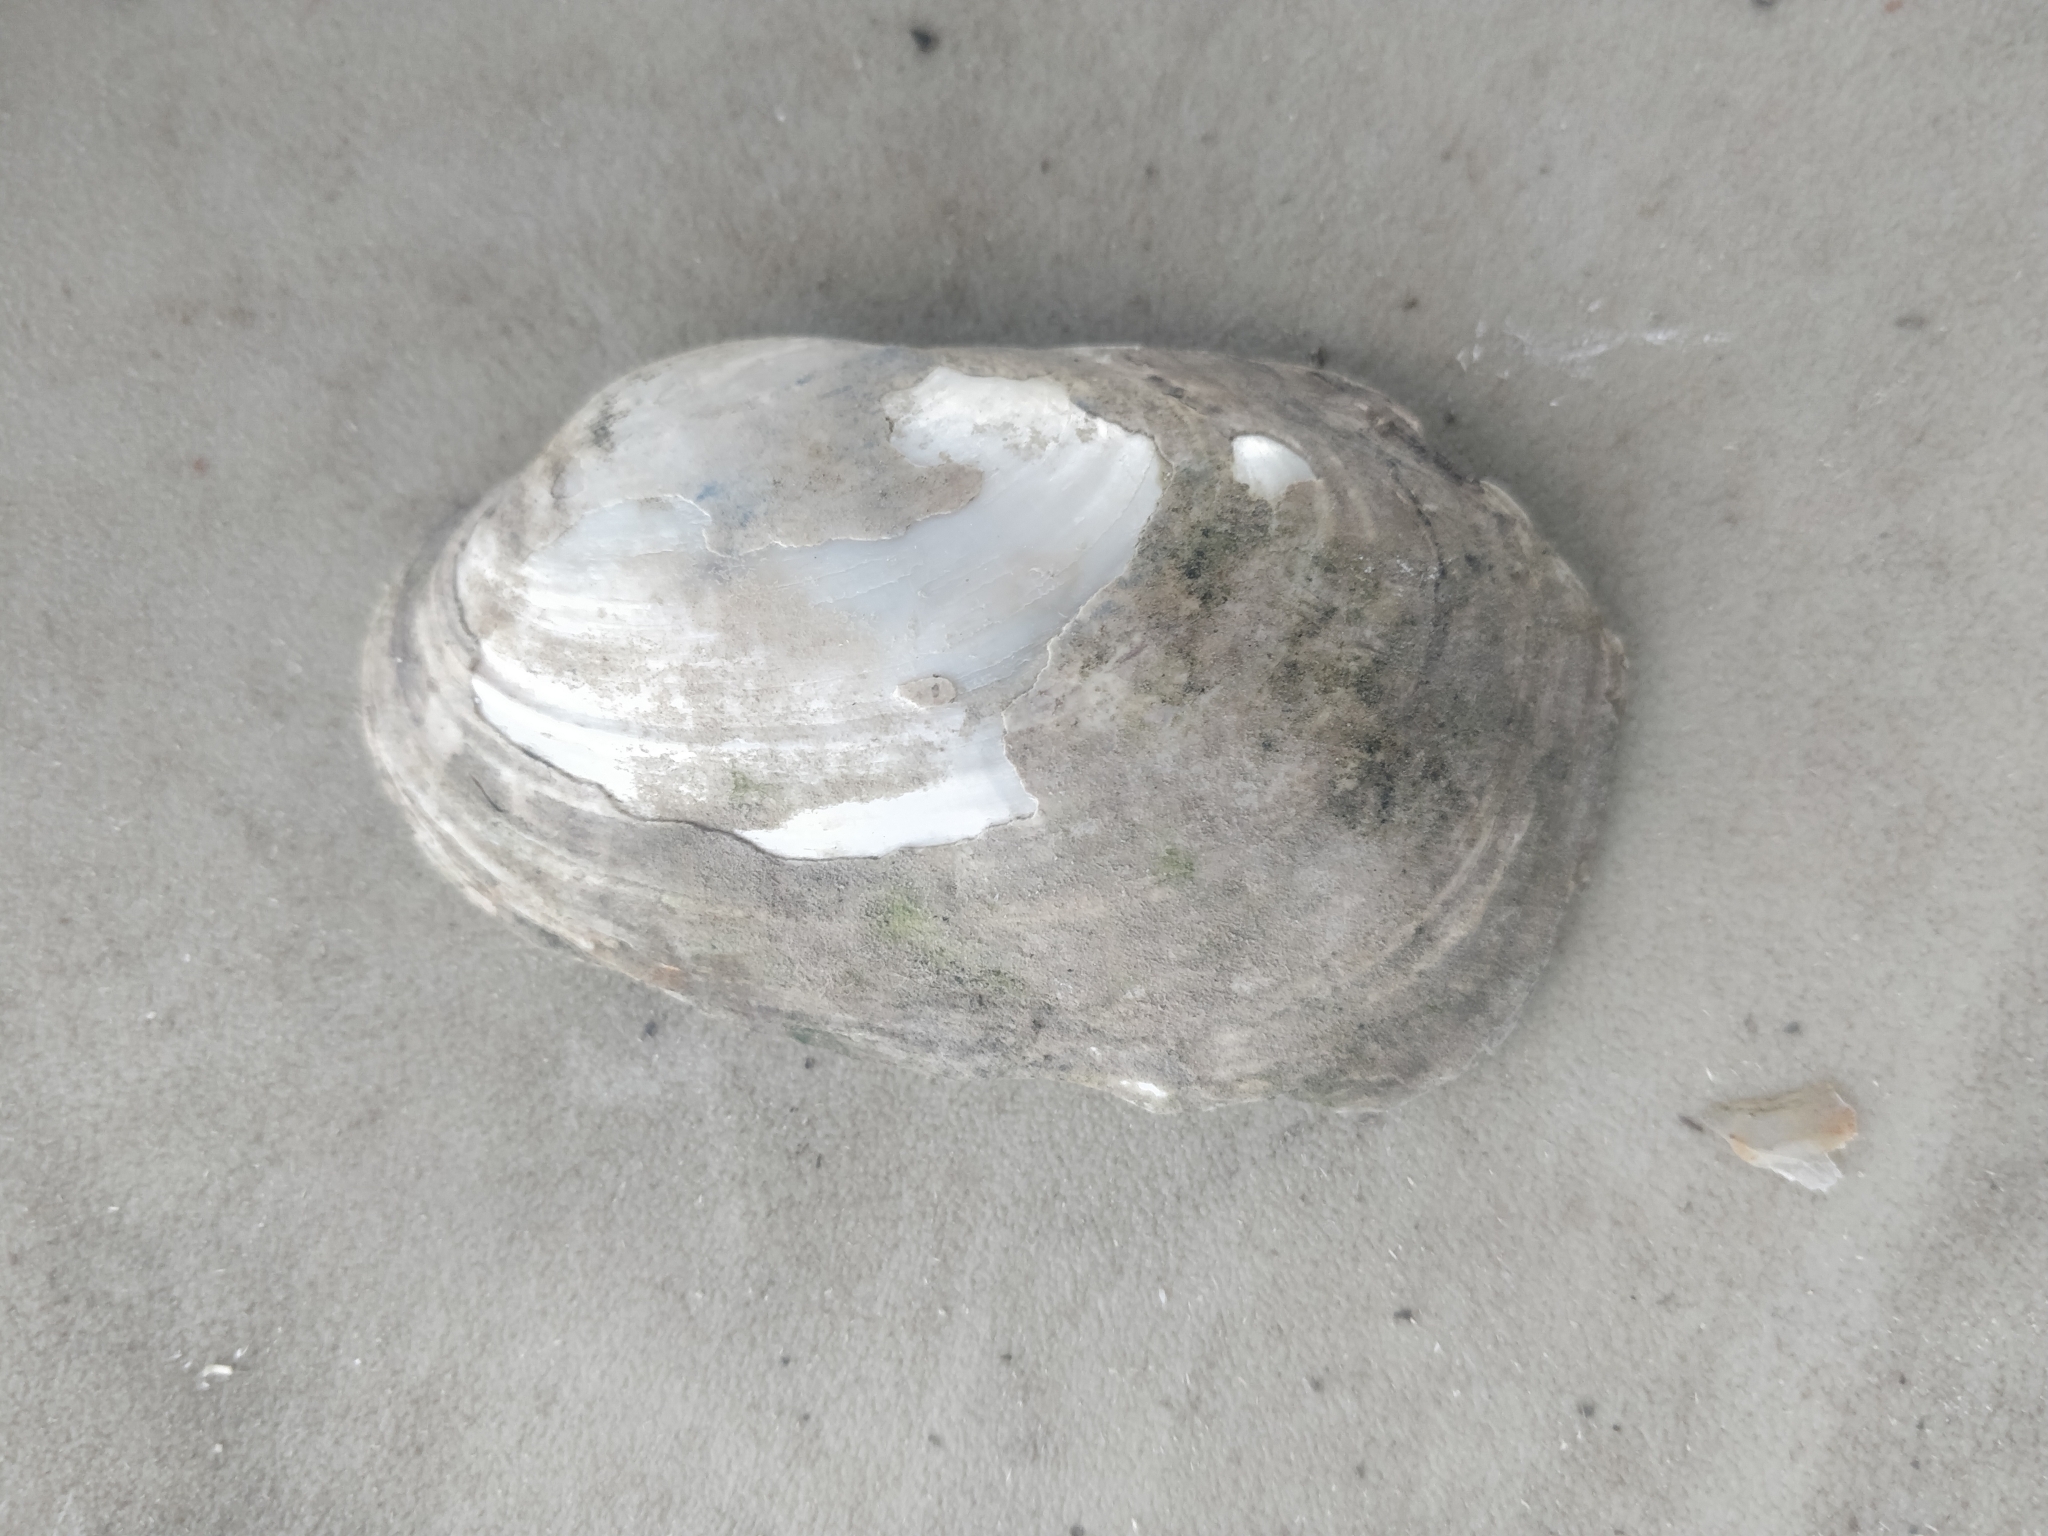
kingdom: Animalia
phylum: Mollusca
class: Bivalvia
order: Unionida
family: Unionidae
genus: Lampsilis
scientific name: Lampsilis siliquoidea
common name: Fatmucket
